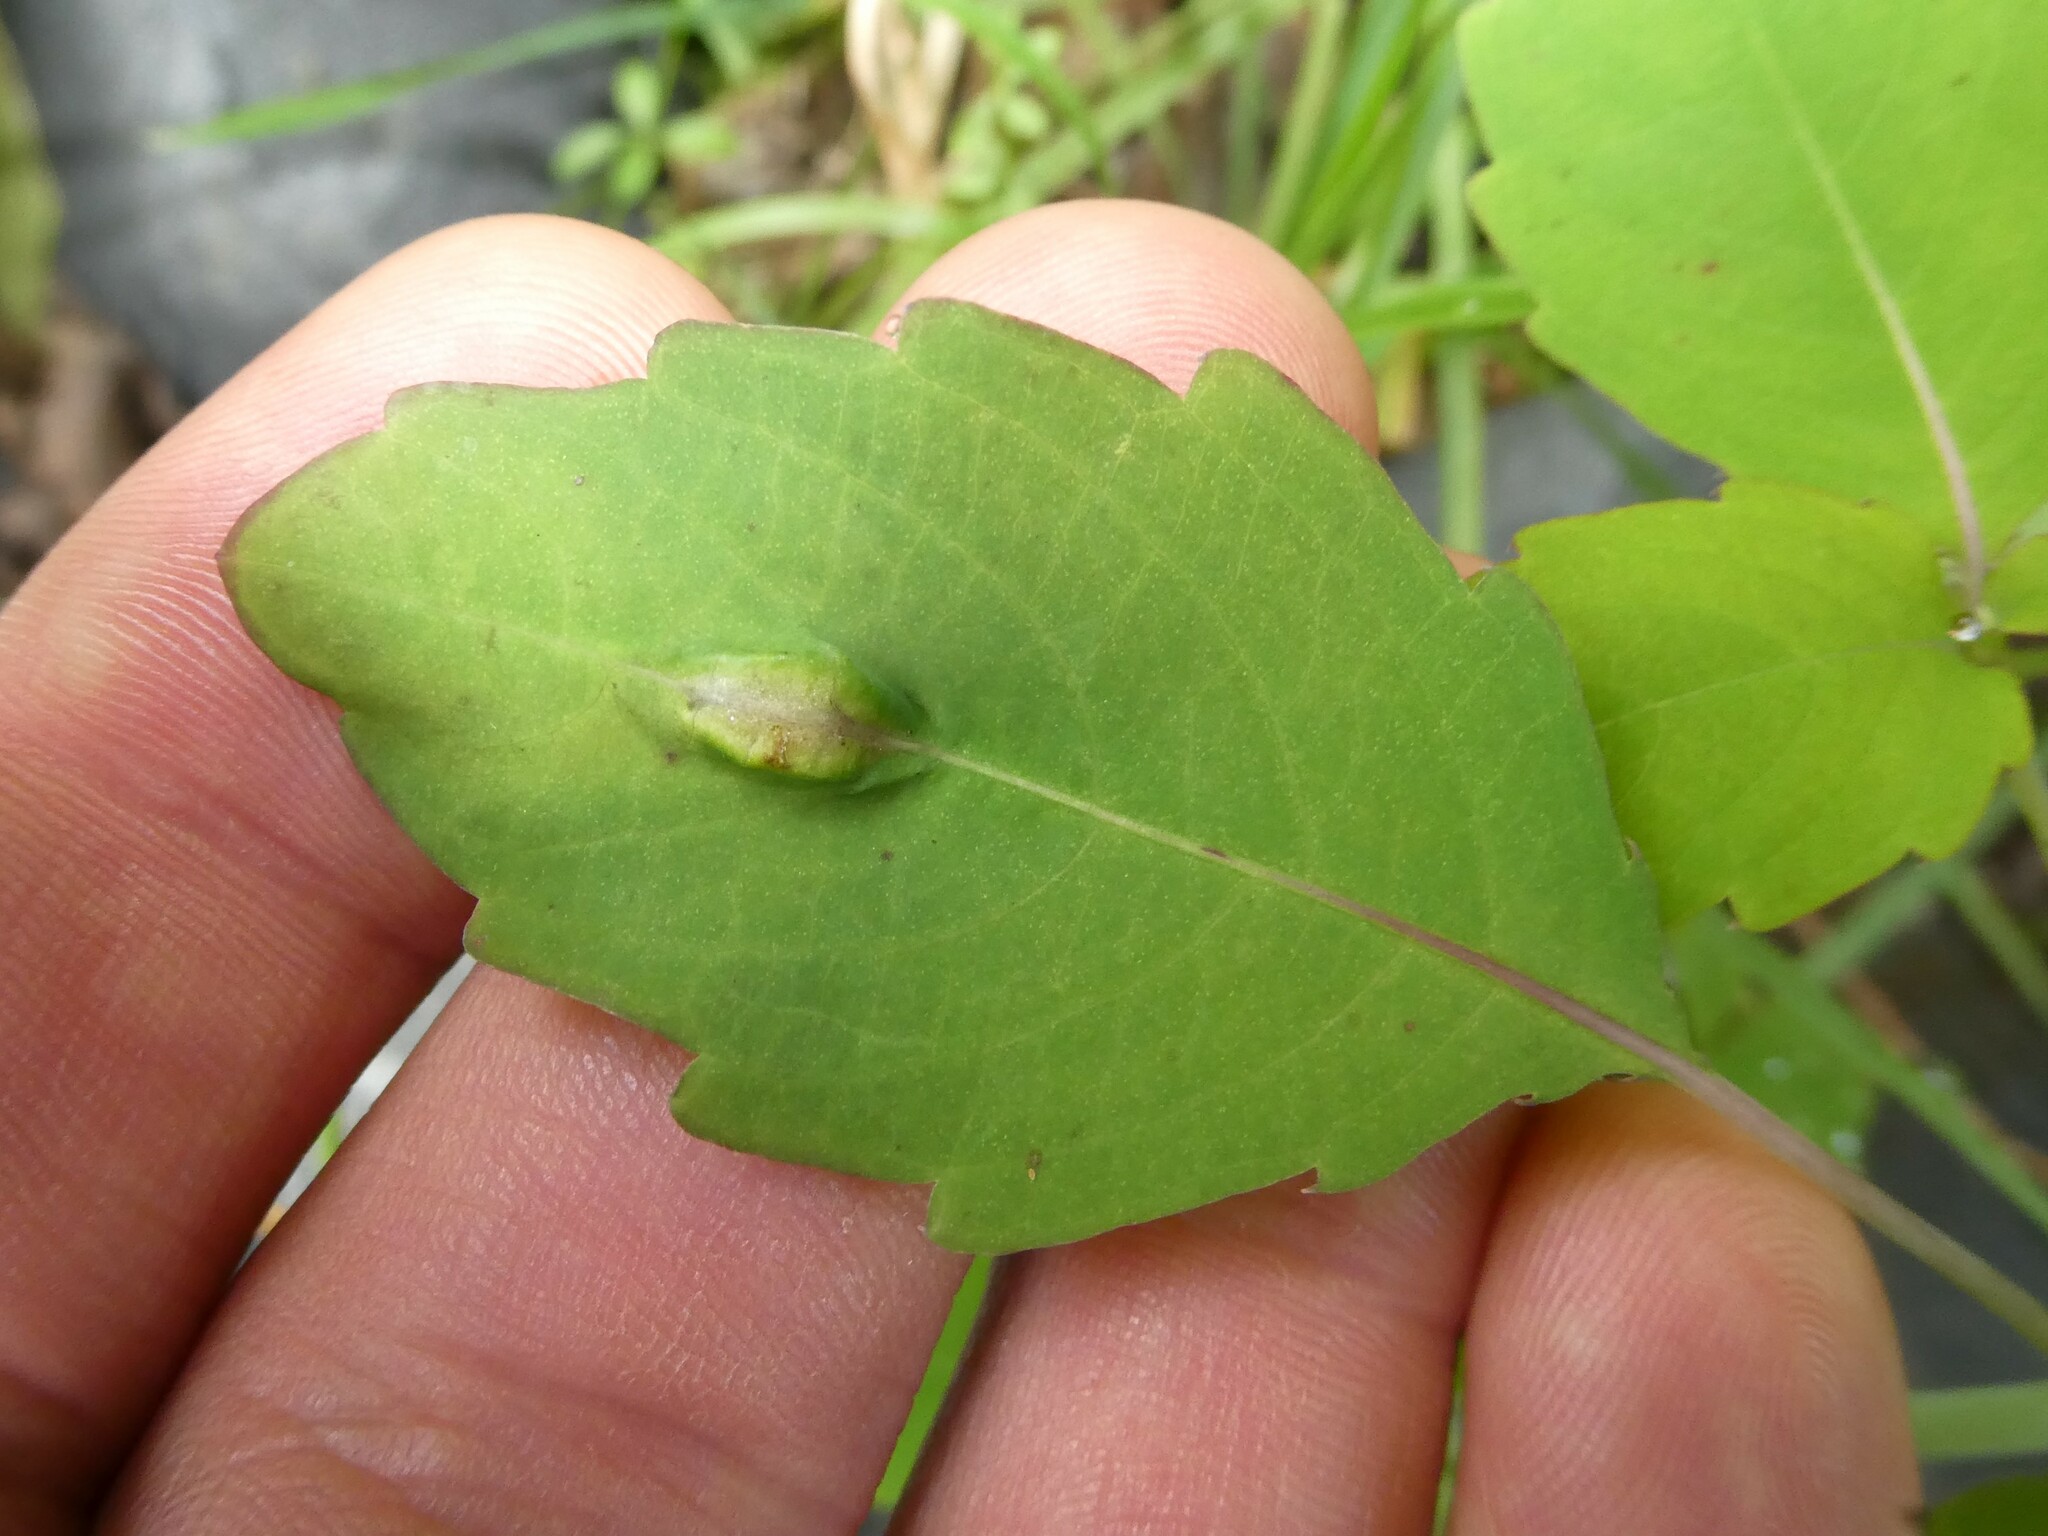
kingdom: Animalia
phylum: Arthropoda
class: Insecta
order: Diptera
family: Cecidomyiidae
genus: Neolasioptera
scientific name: Neolasioptera impatientifolia
